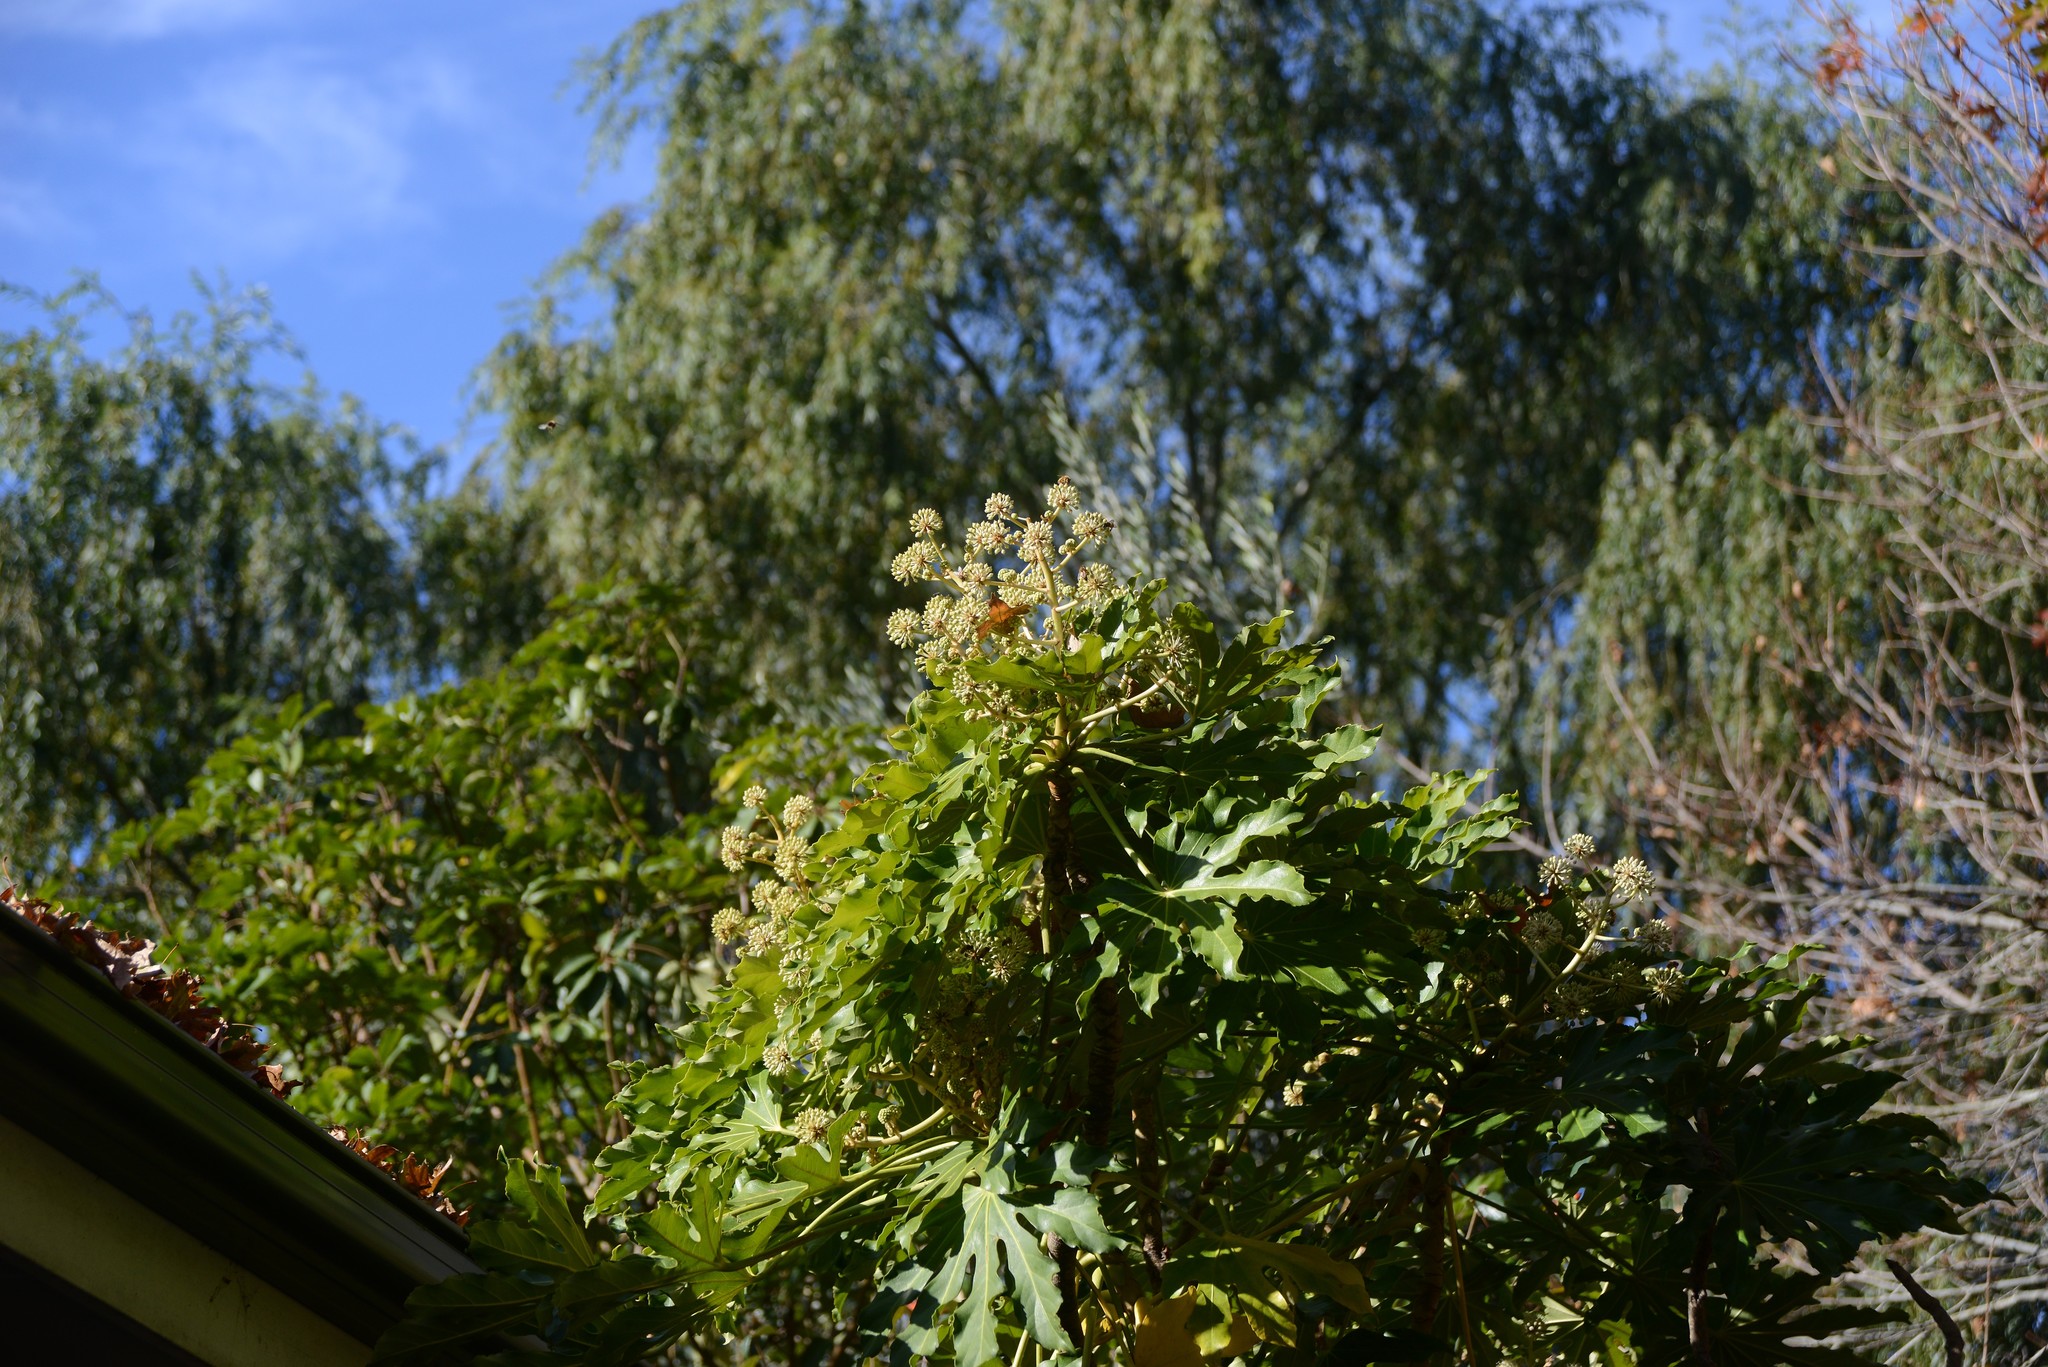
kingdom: Plantae
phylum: Tracheophyta
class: Magnoliopsida
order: Apiales
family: Araliaceae
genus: Fatsia
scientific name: Fatsia japonica
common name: Fatsia
